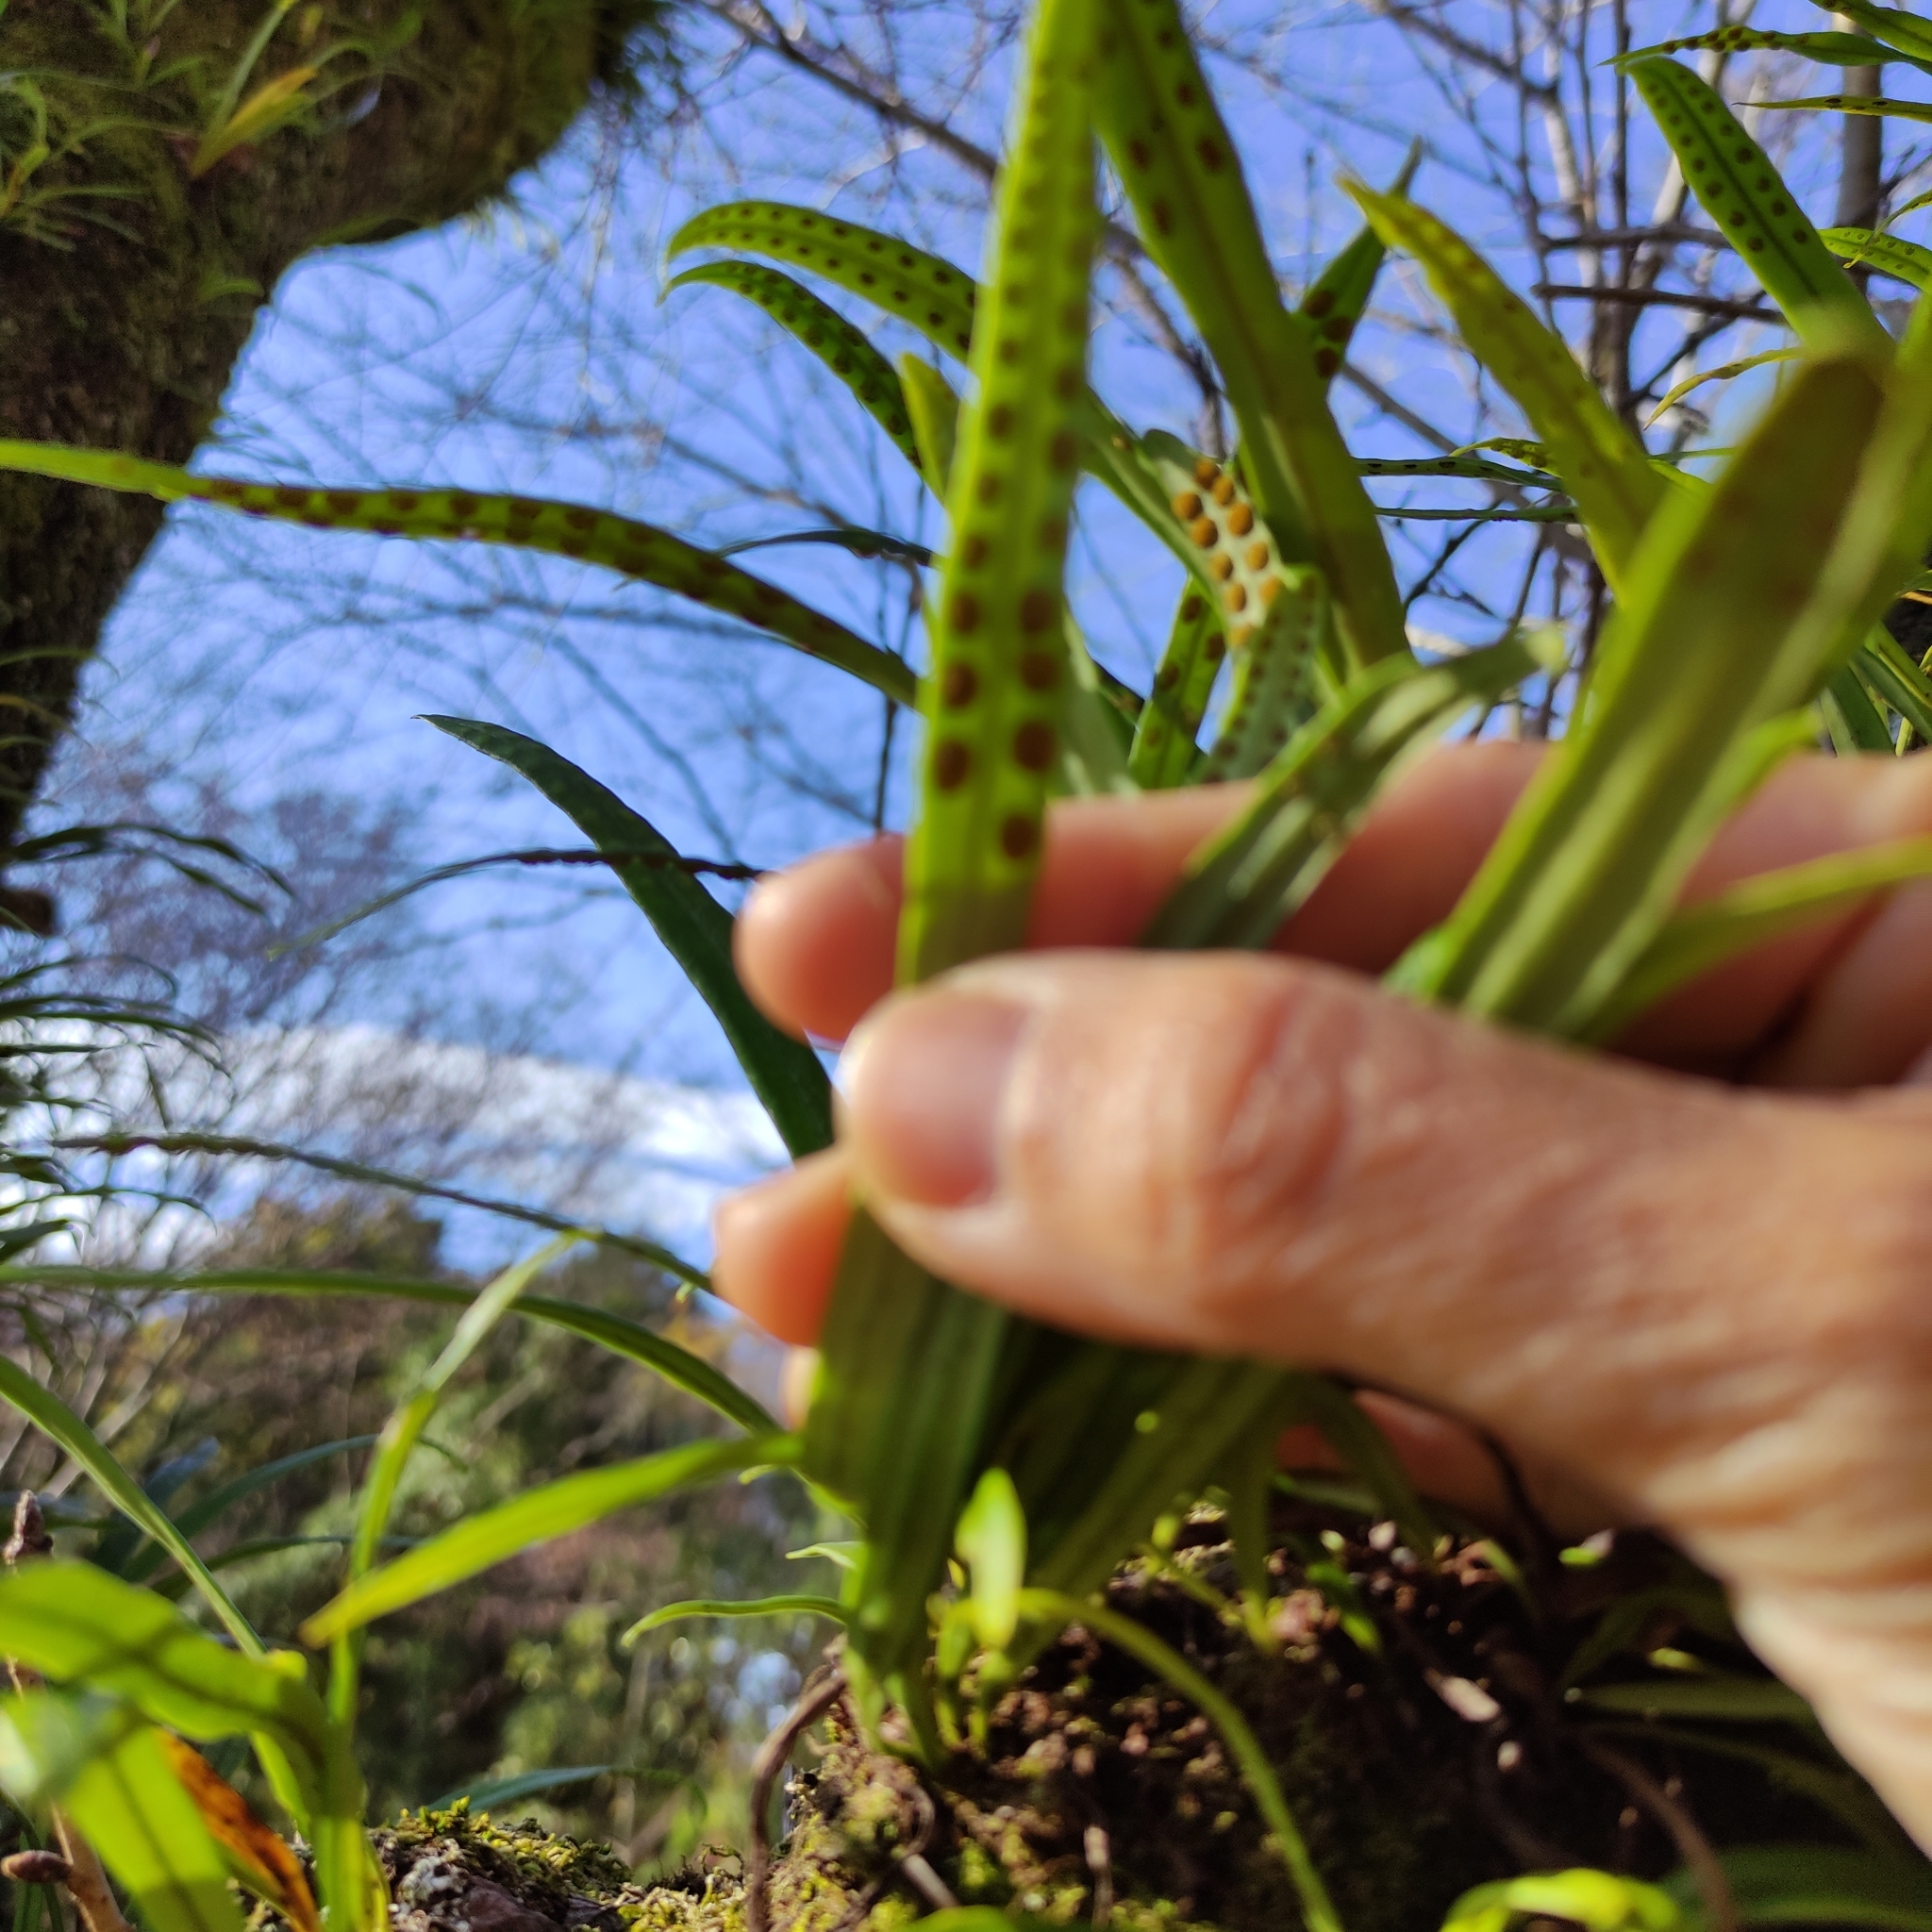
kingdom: Plantae
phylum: Tracheophyta
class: Polypodiopsida
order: Polypodiales
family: Polypodiaceae
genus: Lepisorus
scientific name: Lepisorus thunbergianus
